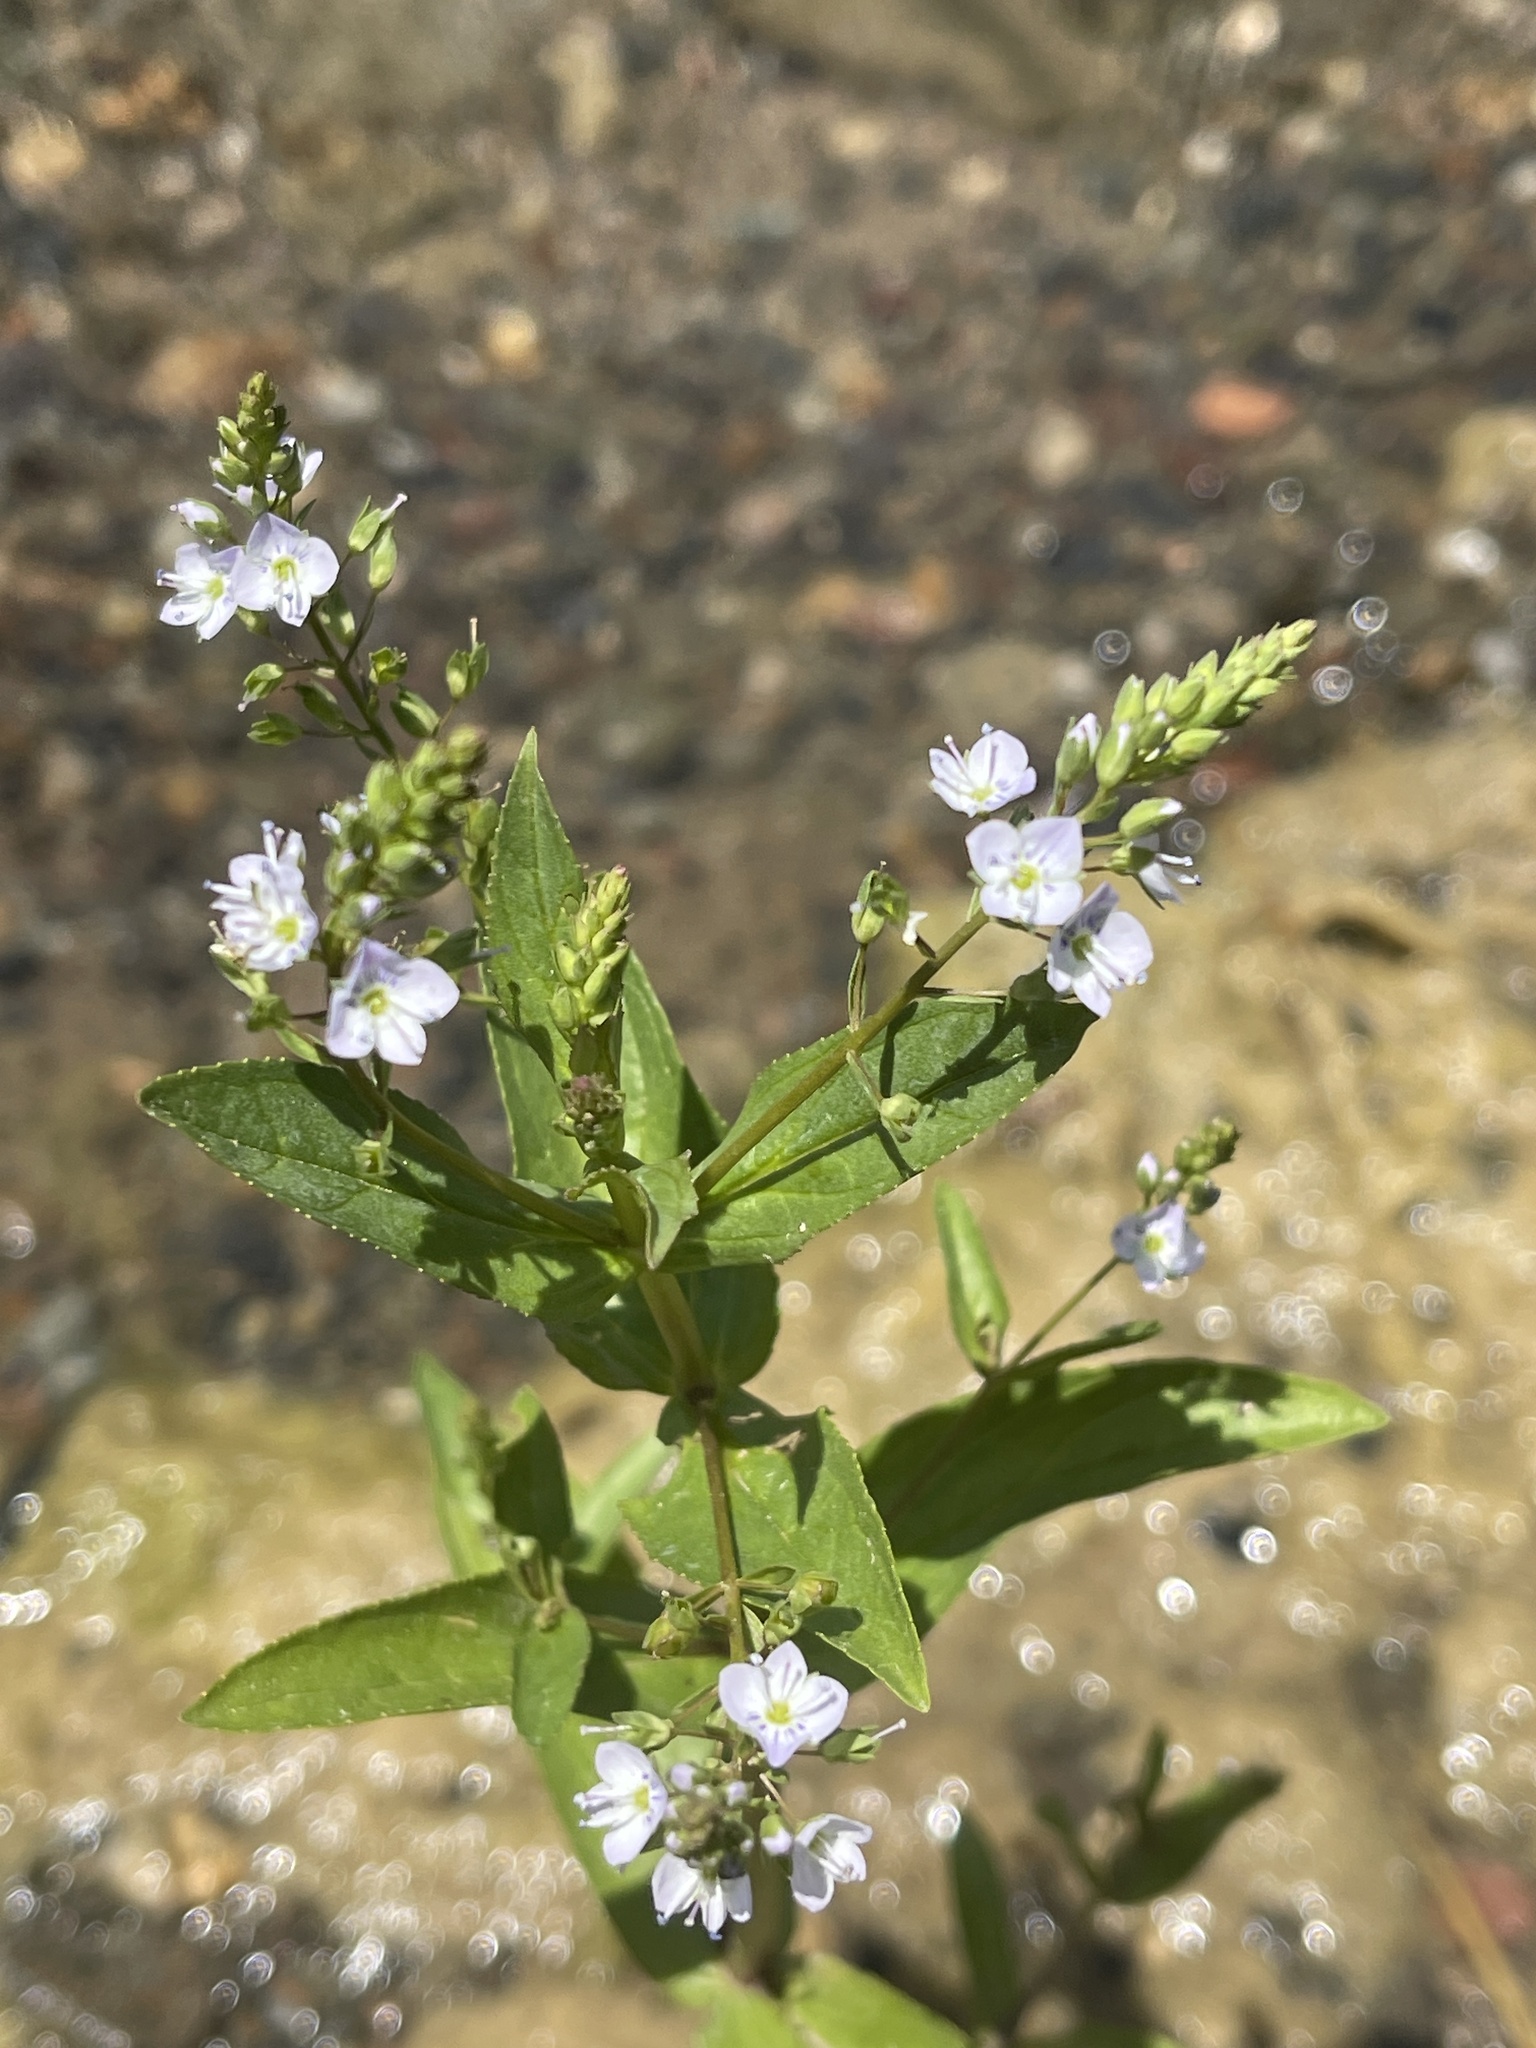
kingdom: Plantae
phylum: Tracheophyta
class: Magnoliopsida
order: Lamiales
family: Plantaginaceae
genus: Veronica
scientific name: Veronica anagallis-aquatica
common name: Water speedwell
